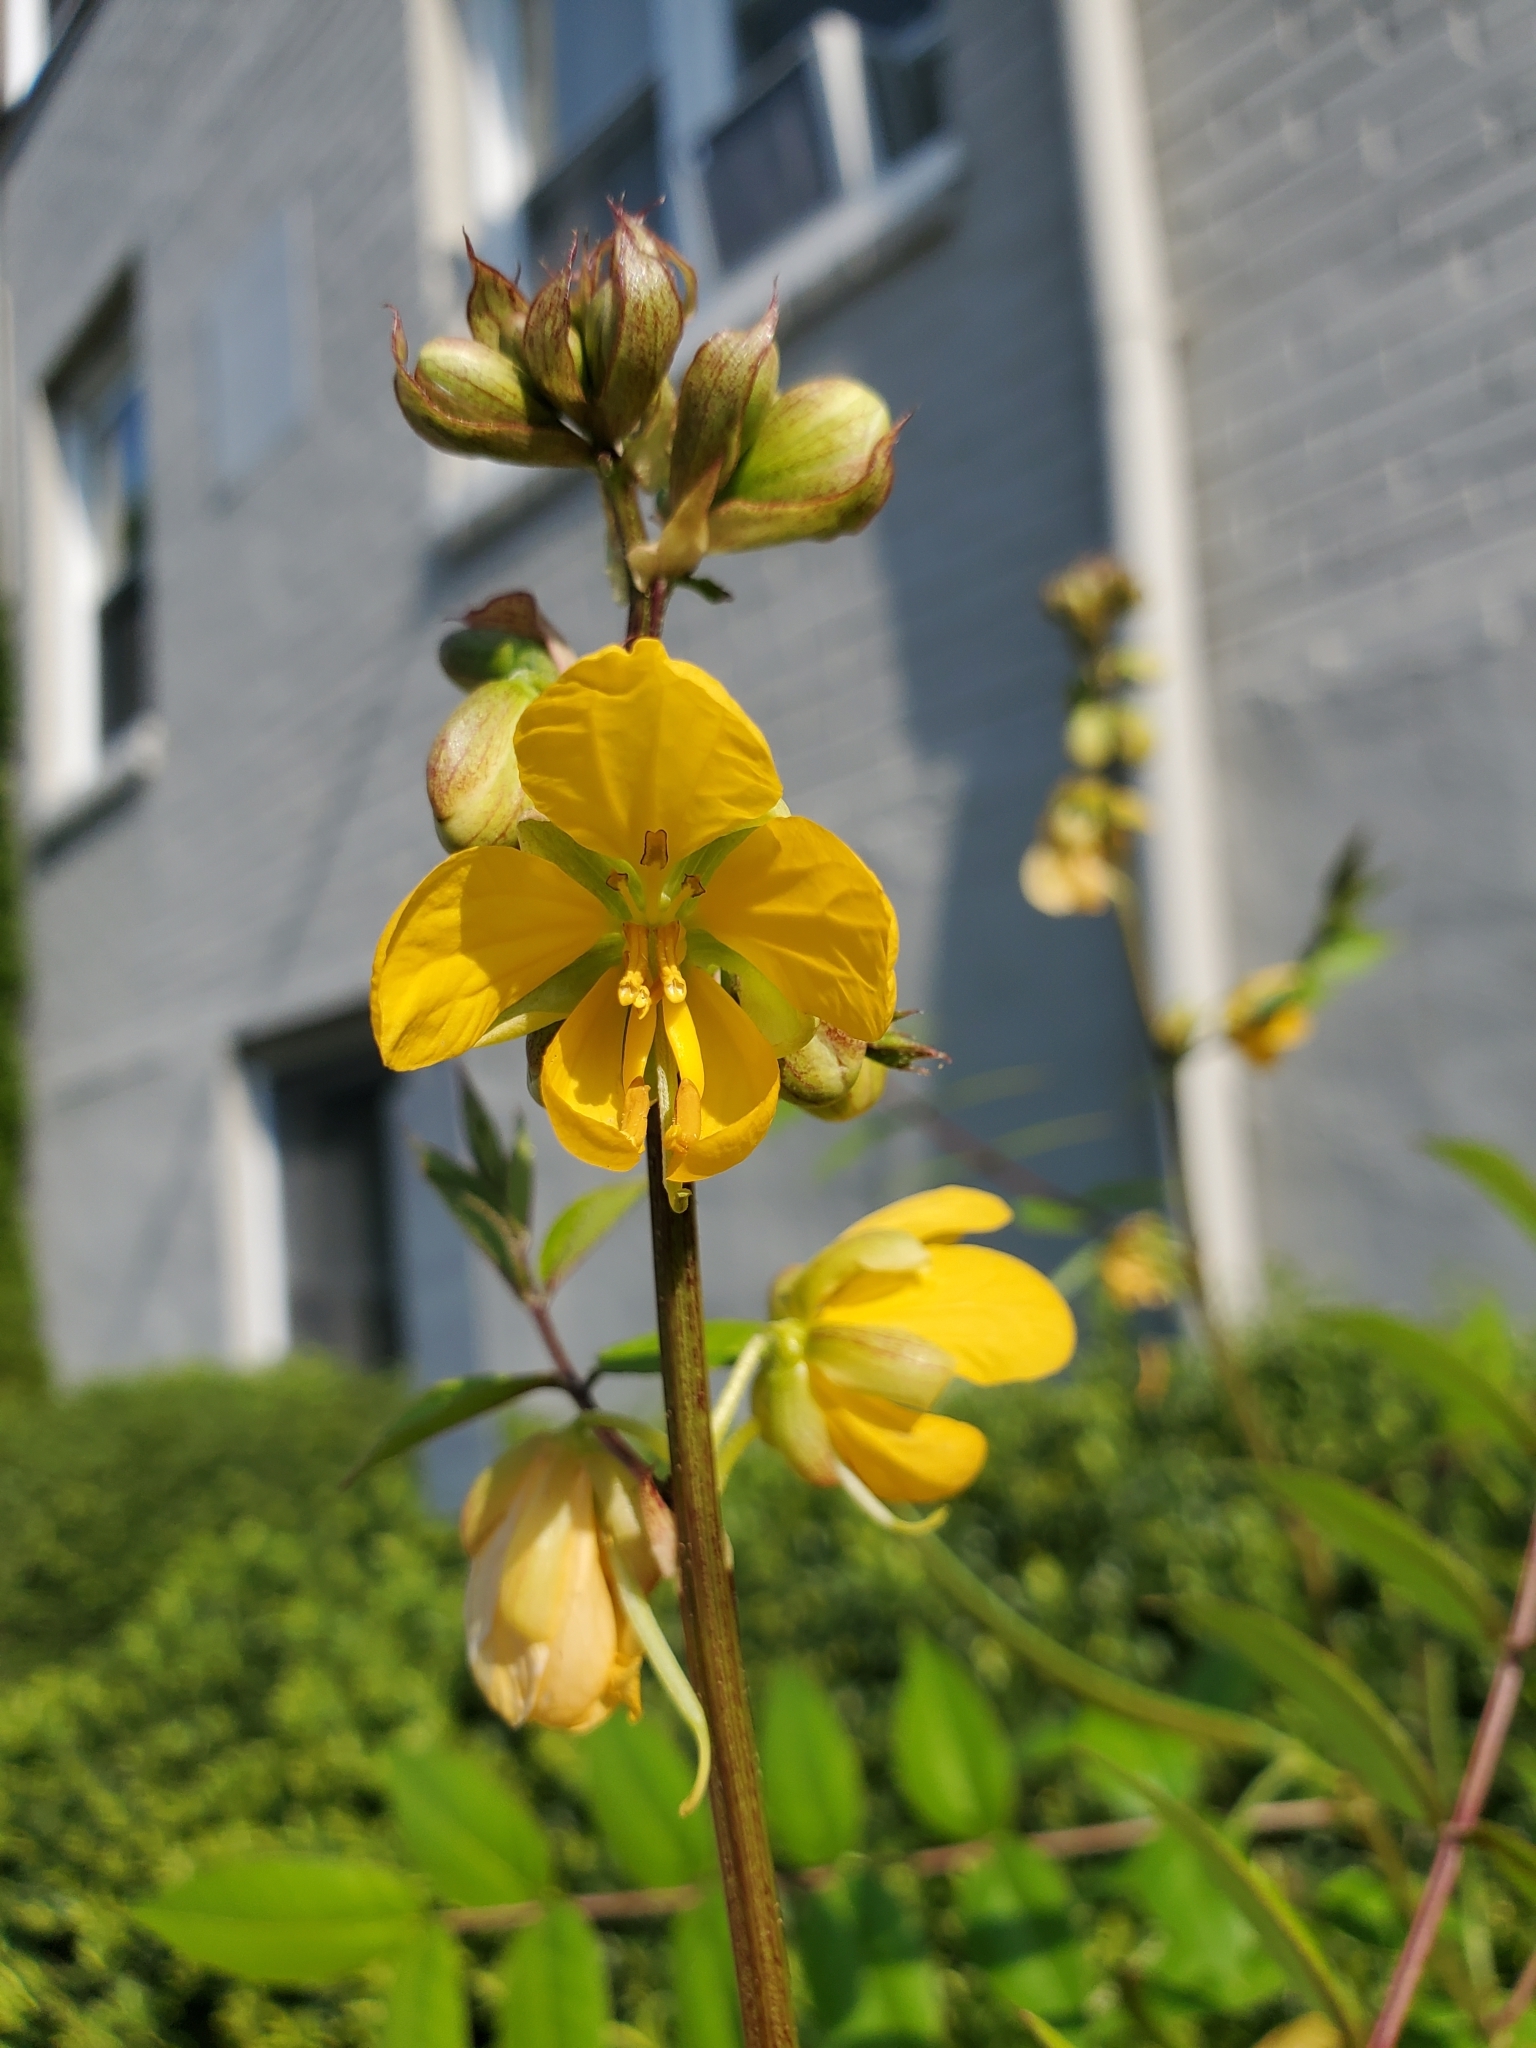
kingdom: Plantae
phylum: Tracheophyta
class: Magnoliopsida
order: Fabales
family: Fabaceae
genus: Senna
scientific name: Senna occidentalis
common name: Septicweed
